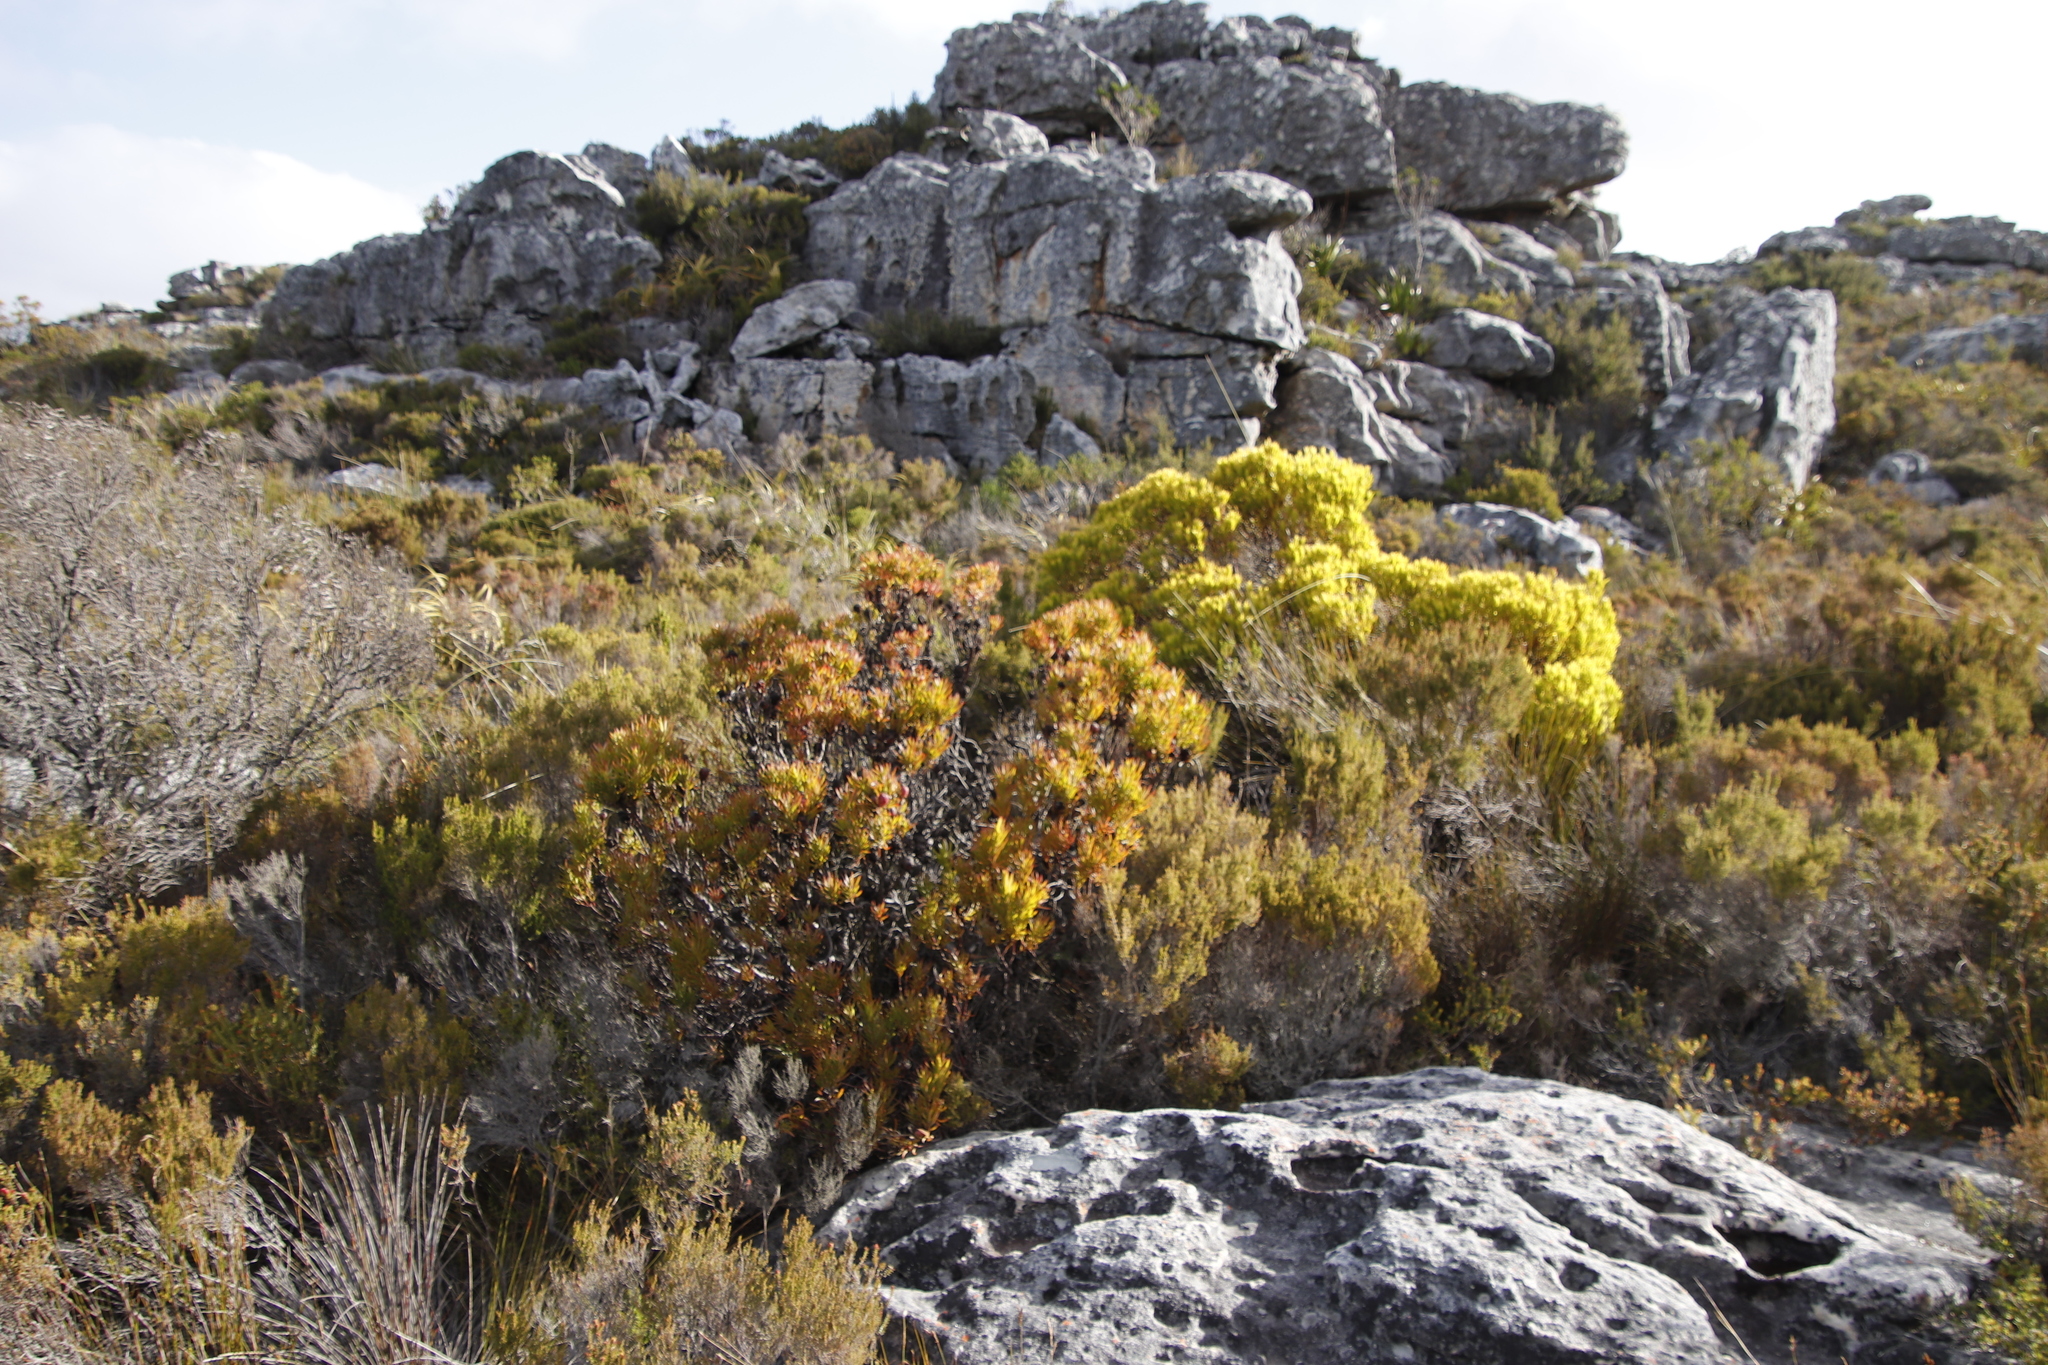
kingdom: Plantae
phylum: Tracheophyta
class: Magnoliopsida
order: Proteales
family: Proteaceae
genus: Leucadendron
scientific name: Leucadendron xanthoconus
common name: Sickle-leaf conebush
